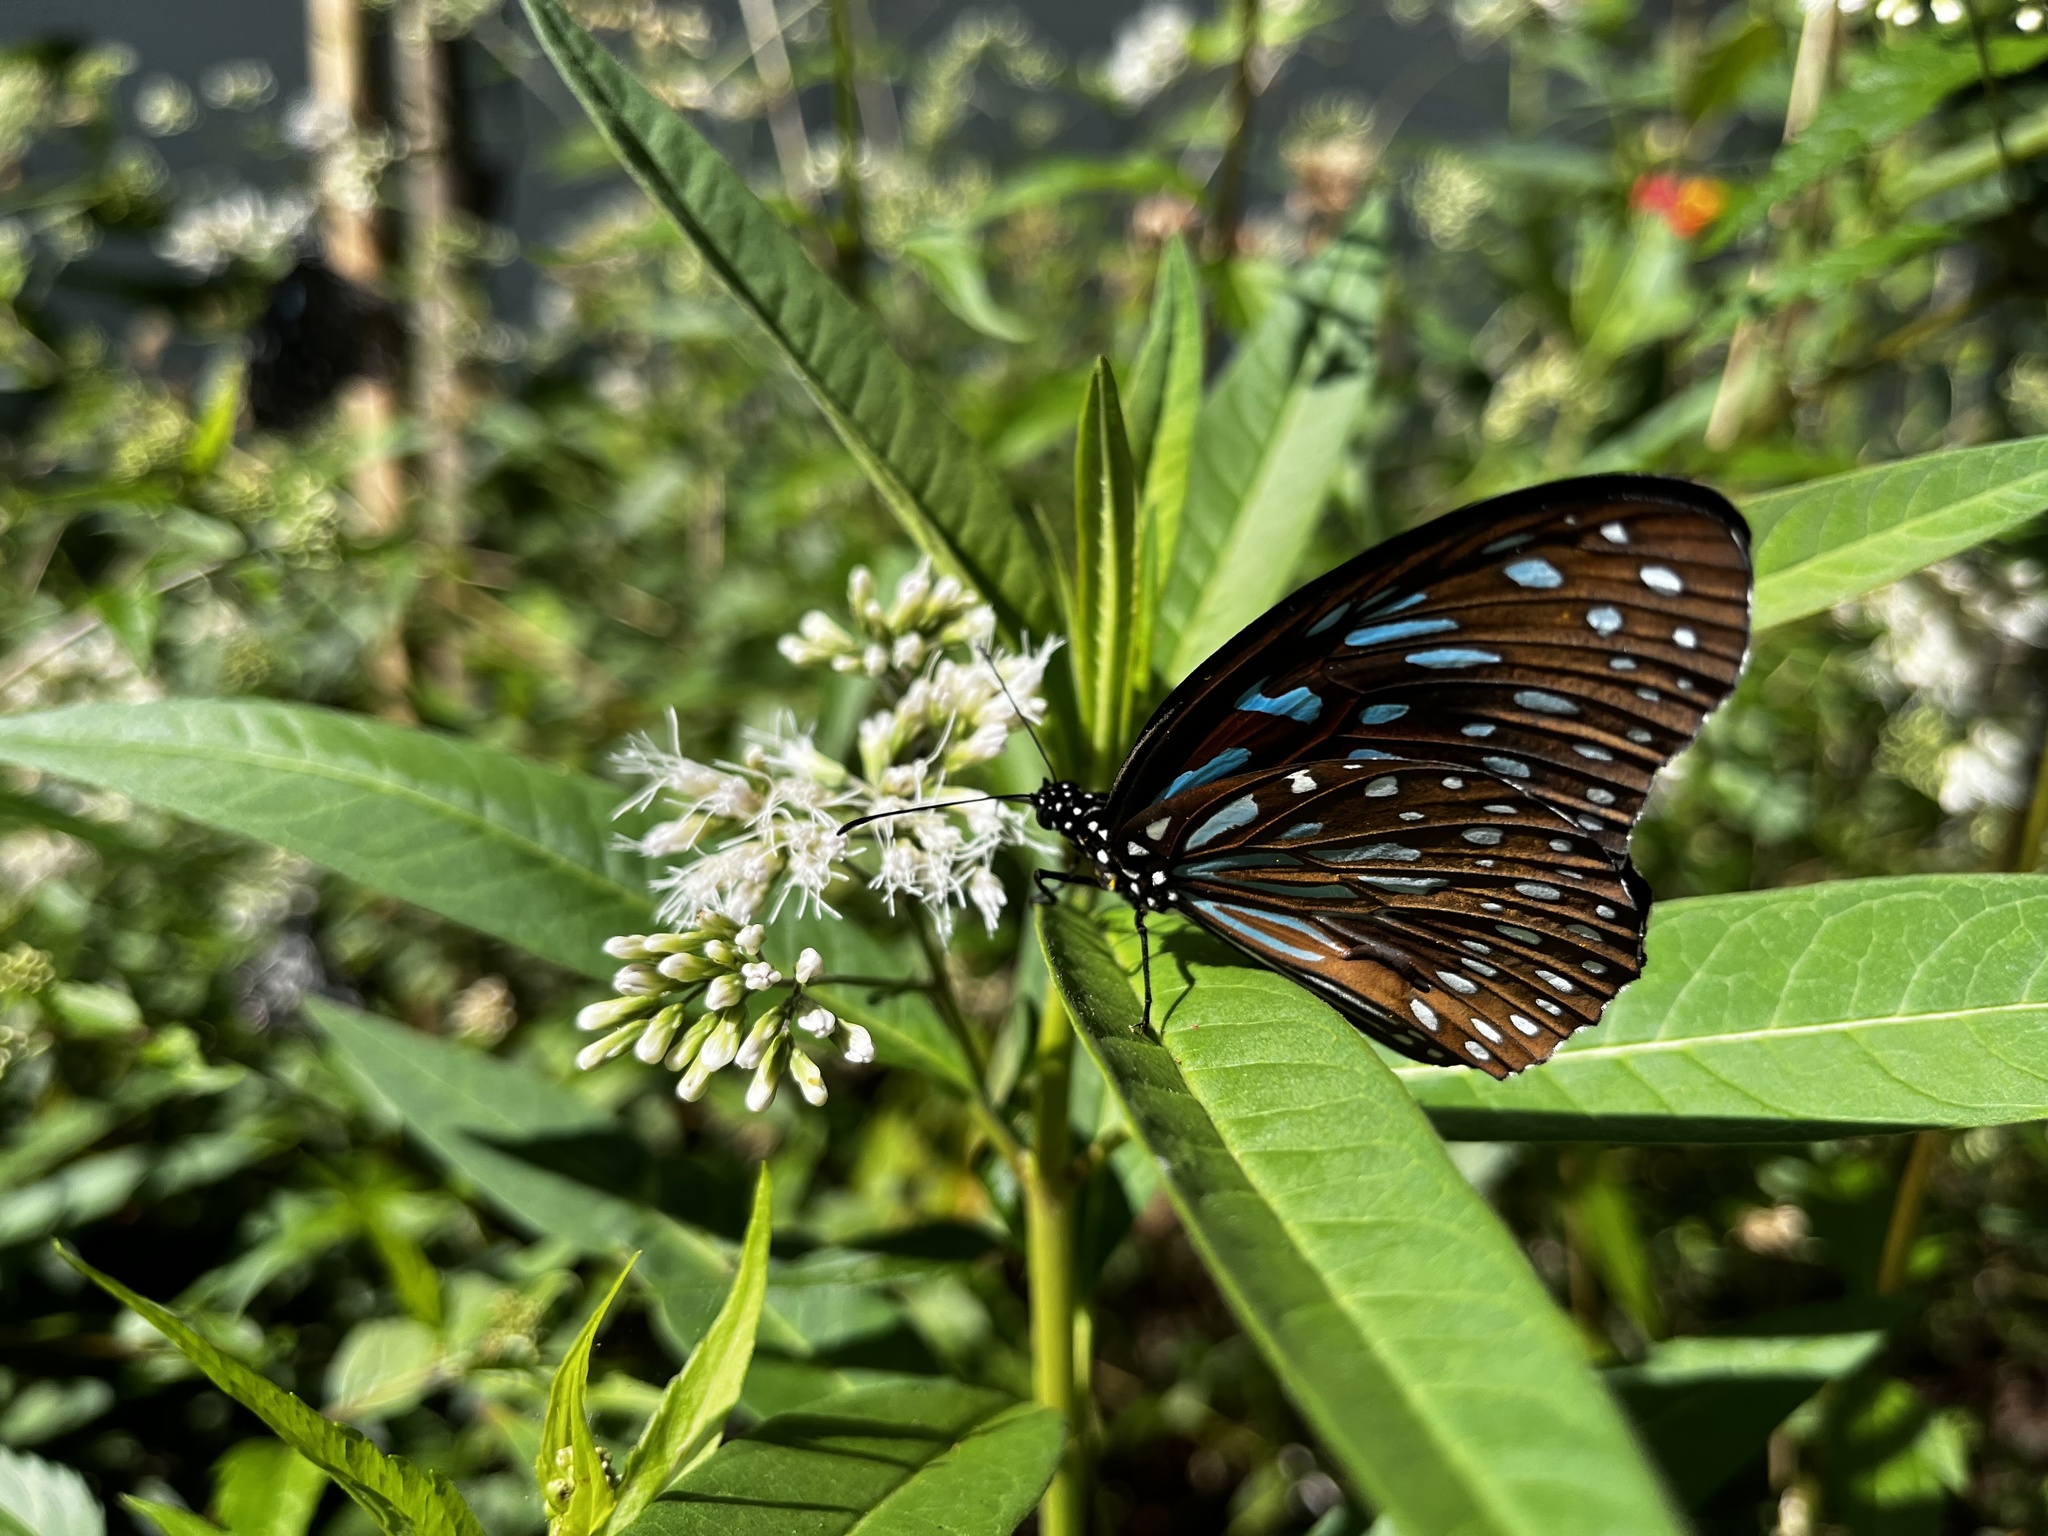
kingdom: Animalia
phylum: Arthropoda
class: Insecta
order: Lepidoptera
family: Nymphalidae
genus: Tirumala
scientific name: Tirumala septentrionis
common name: Dark blue tiger butterfly
